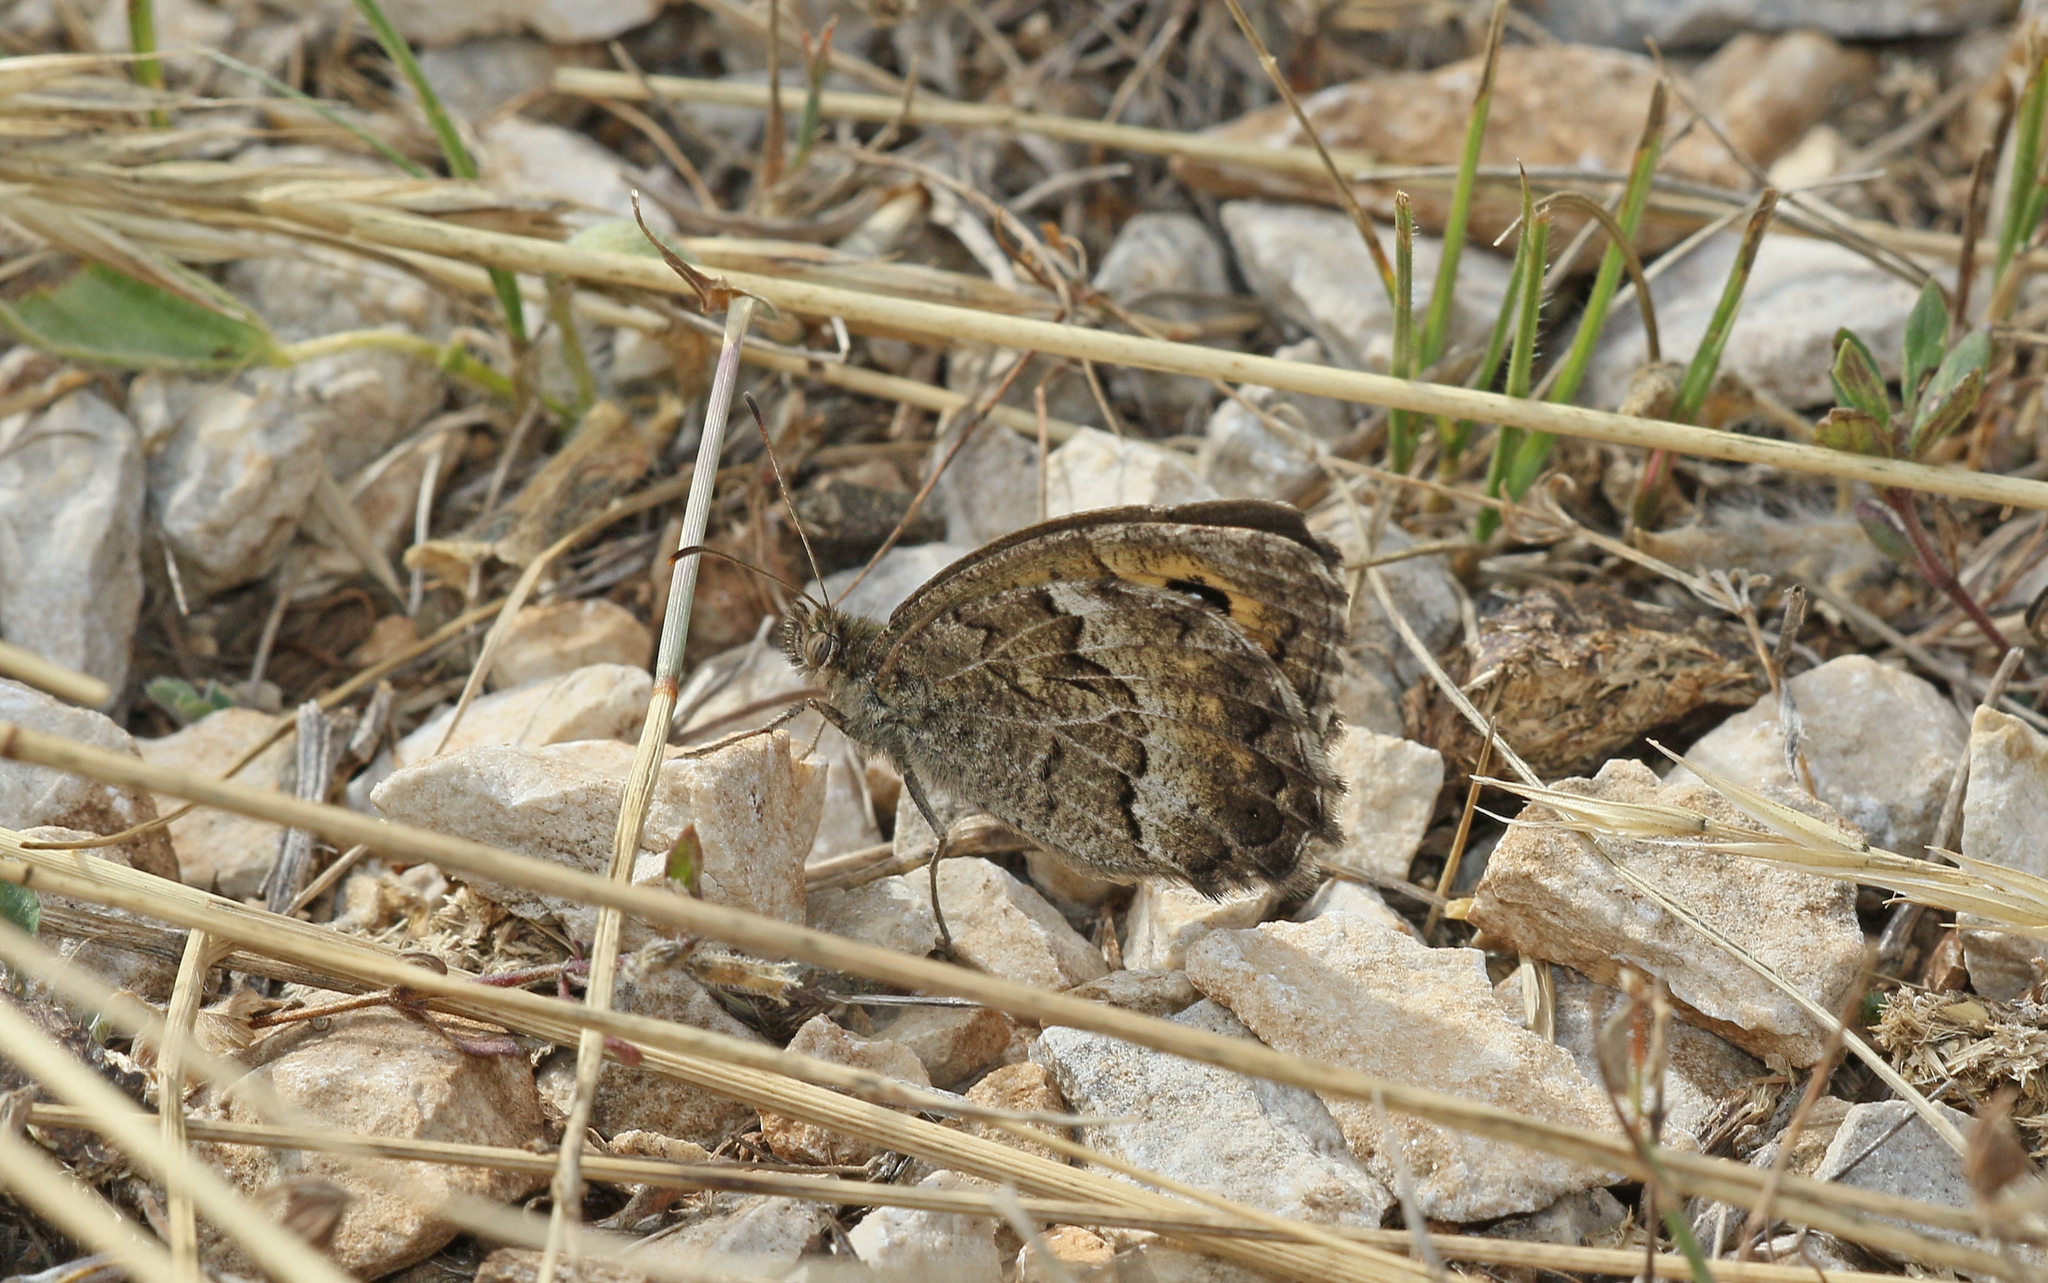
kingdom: Animalia
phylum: Arthropoda
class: Insecta
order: Lepidoptera
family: Nymphalidae
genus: Arethusana
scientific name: Arethusana arethusa
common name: False grayling
